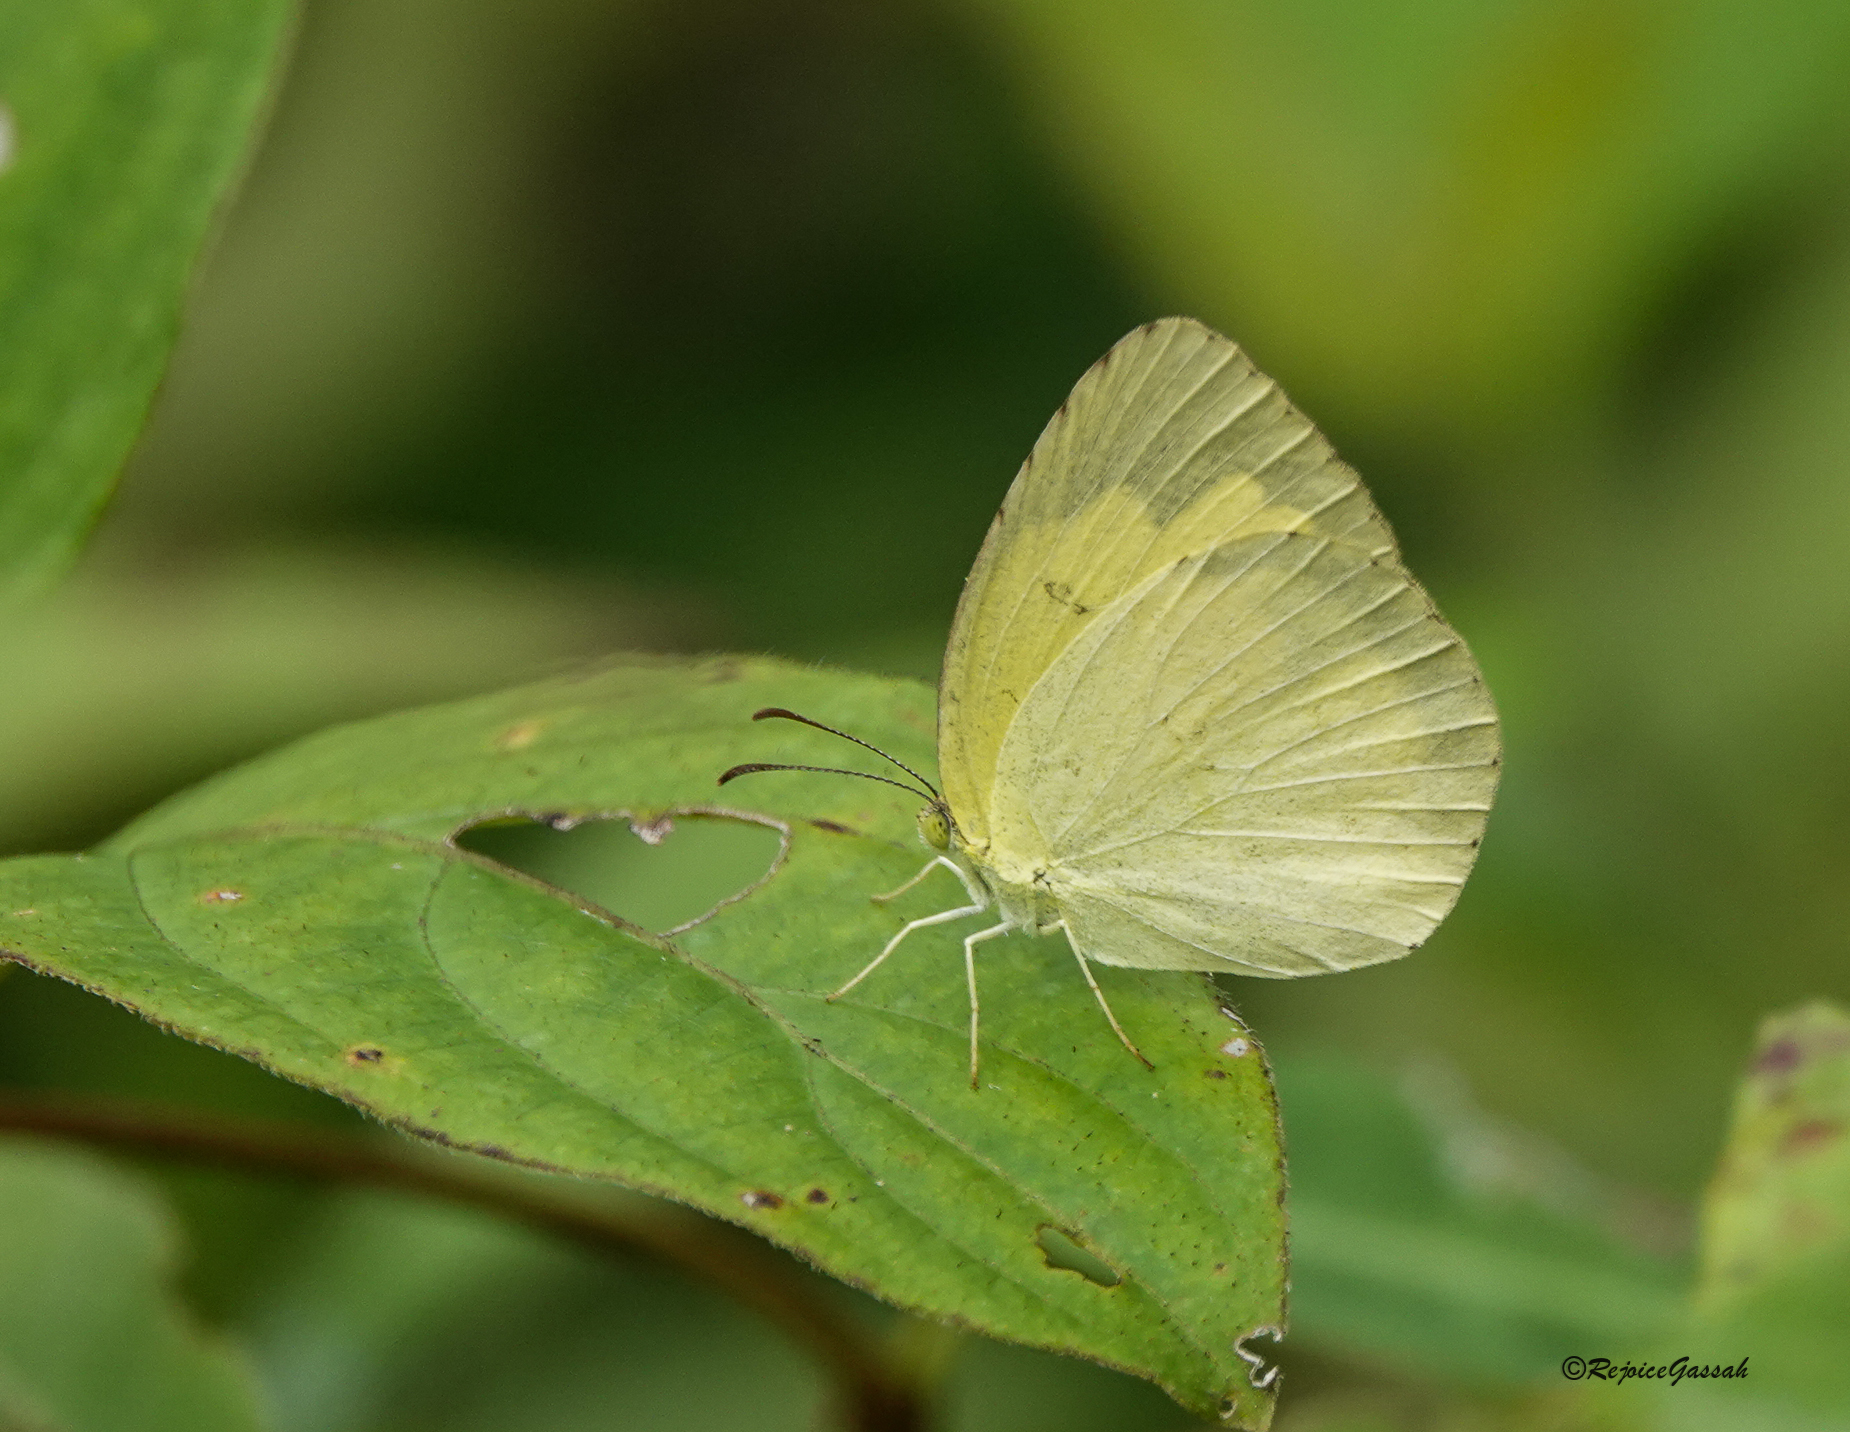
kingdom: Animalia
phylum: Arthropoda
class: Insecta
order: Lepidoptera
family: Pieridae
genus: Eurema
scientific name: Eurema hecabe
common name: Pale grass yellow
